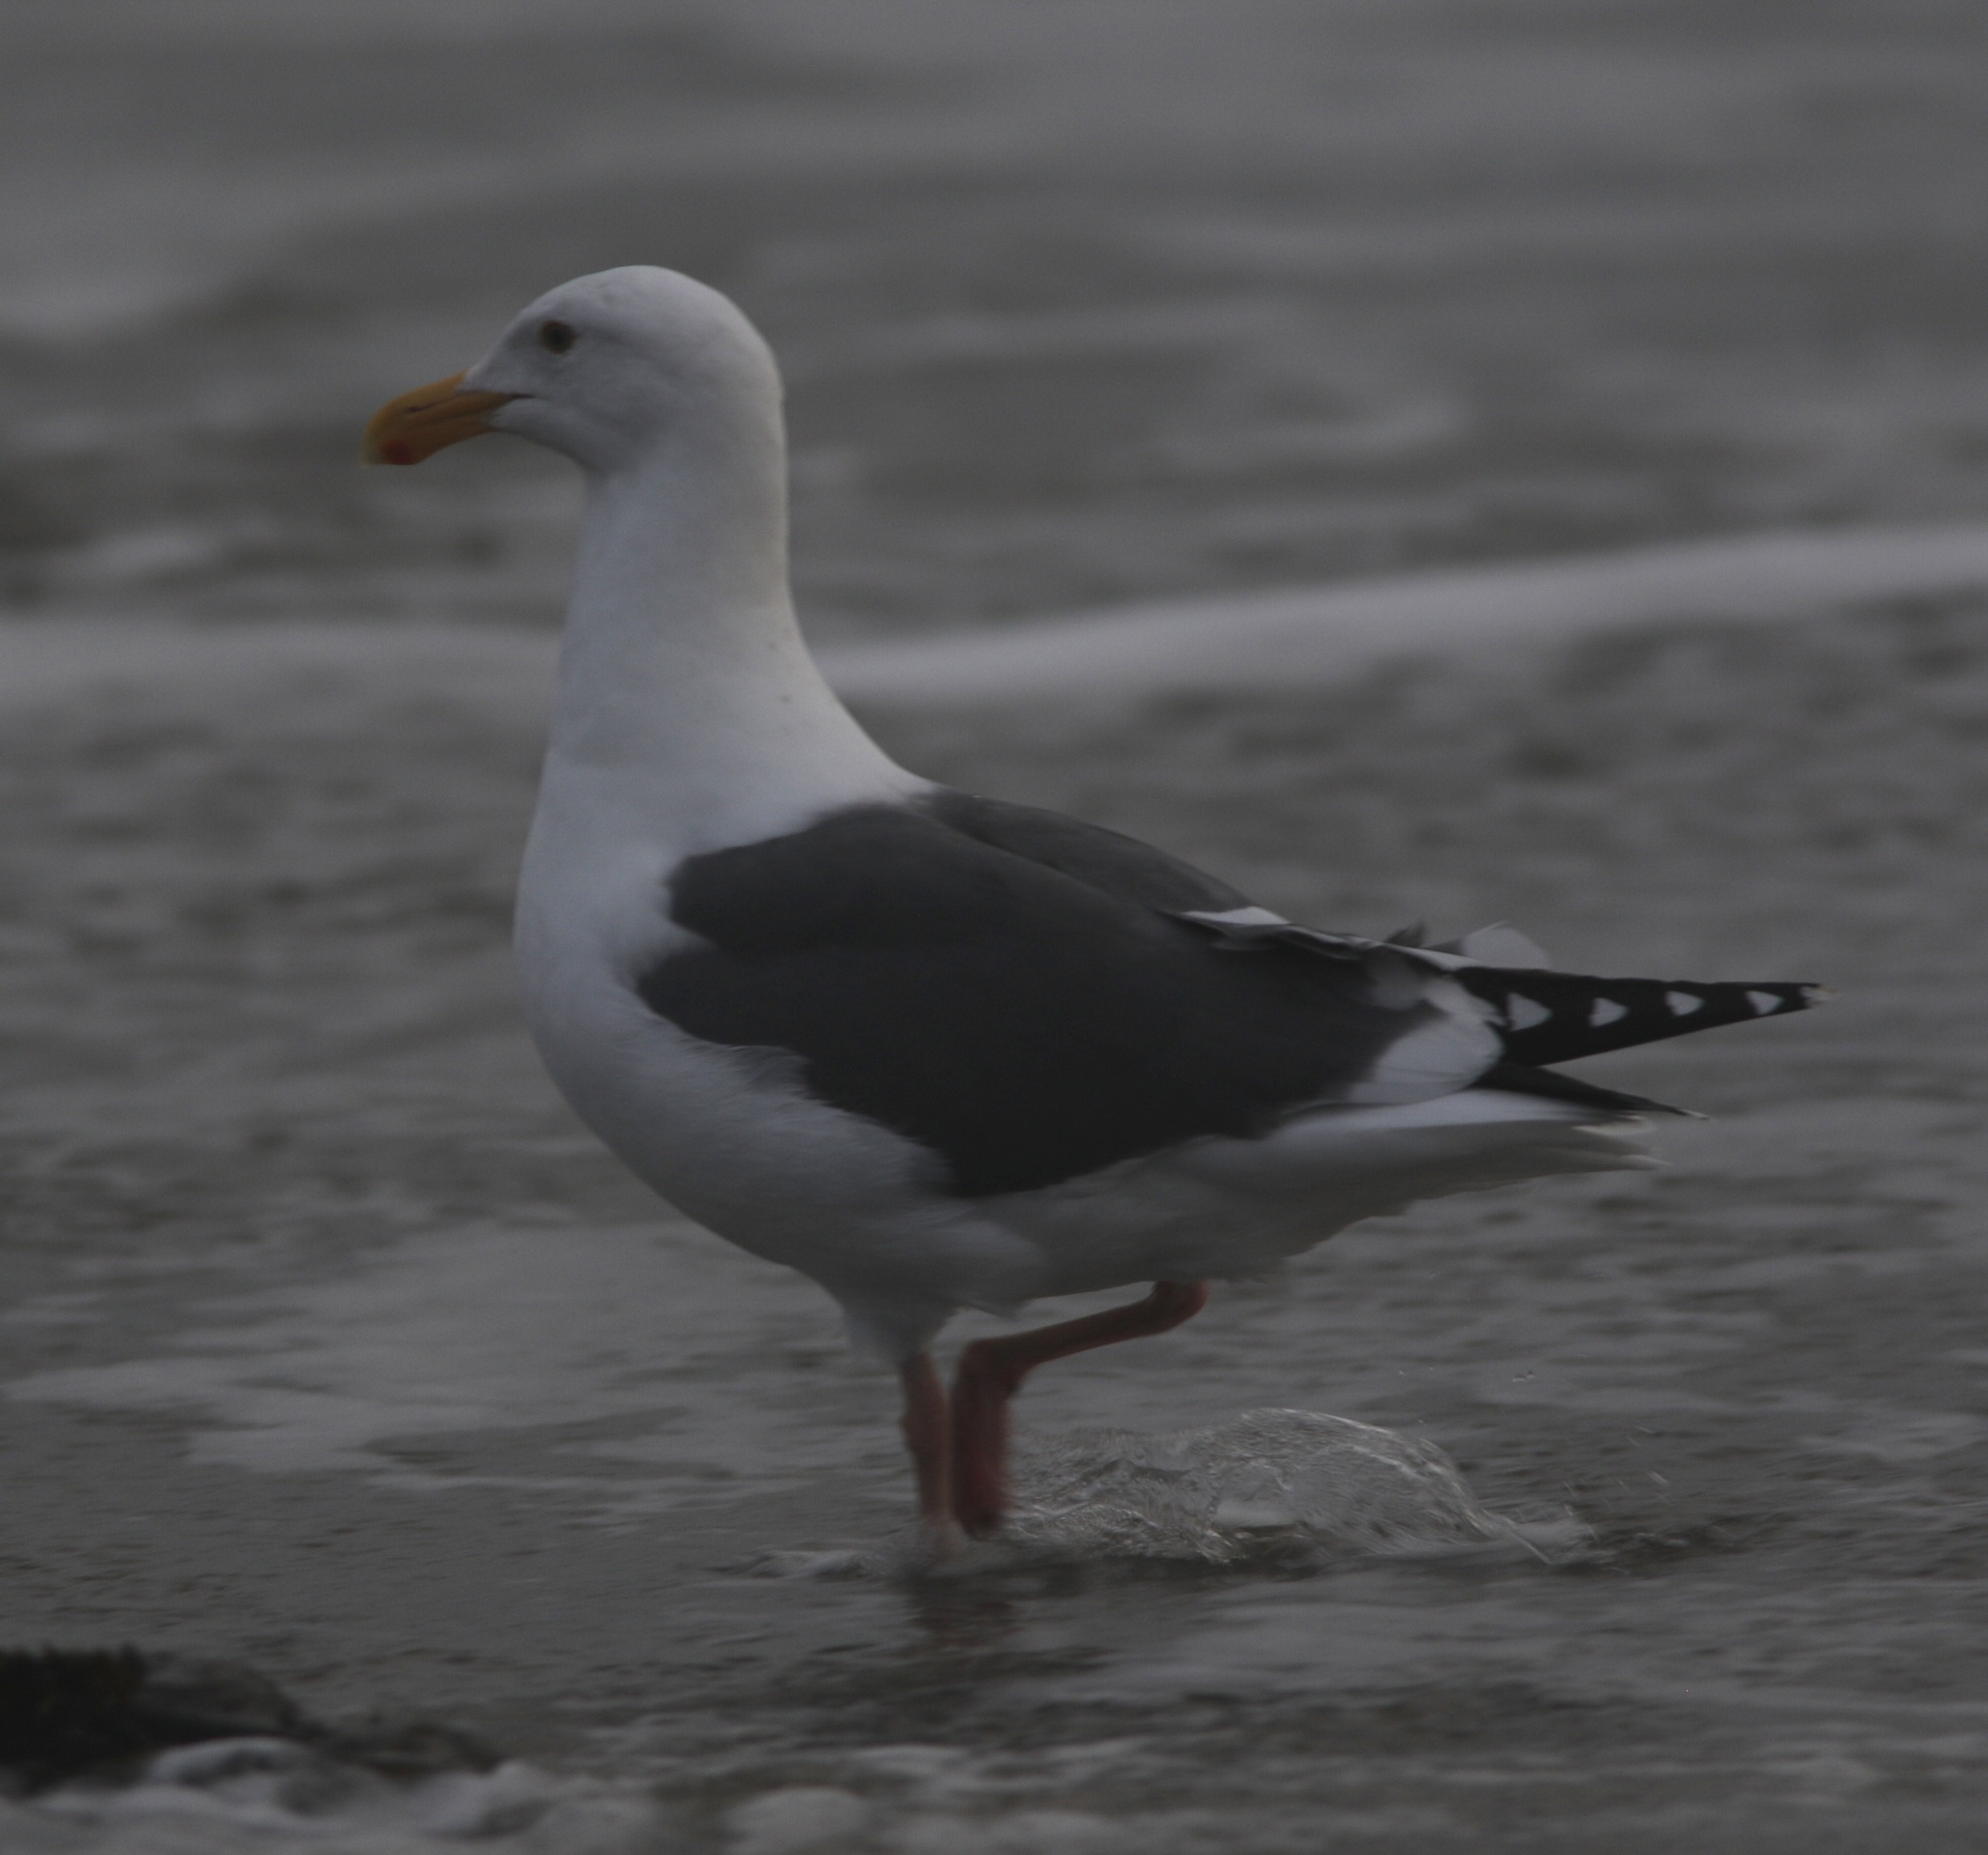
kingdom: Animalia
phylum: Chordata
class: Aves
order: Charadriiformes
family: Laridae
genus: Larus
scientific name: Larus occidentalis
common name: Western gull
